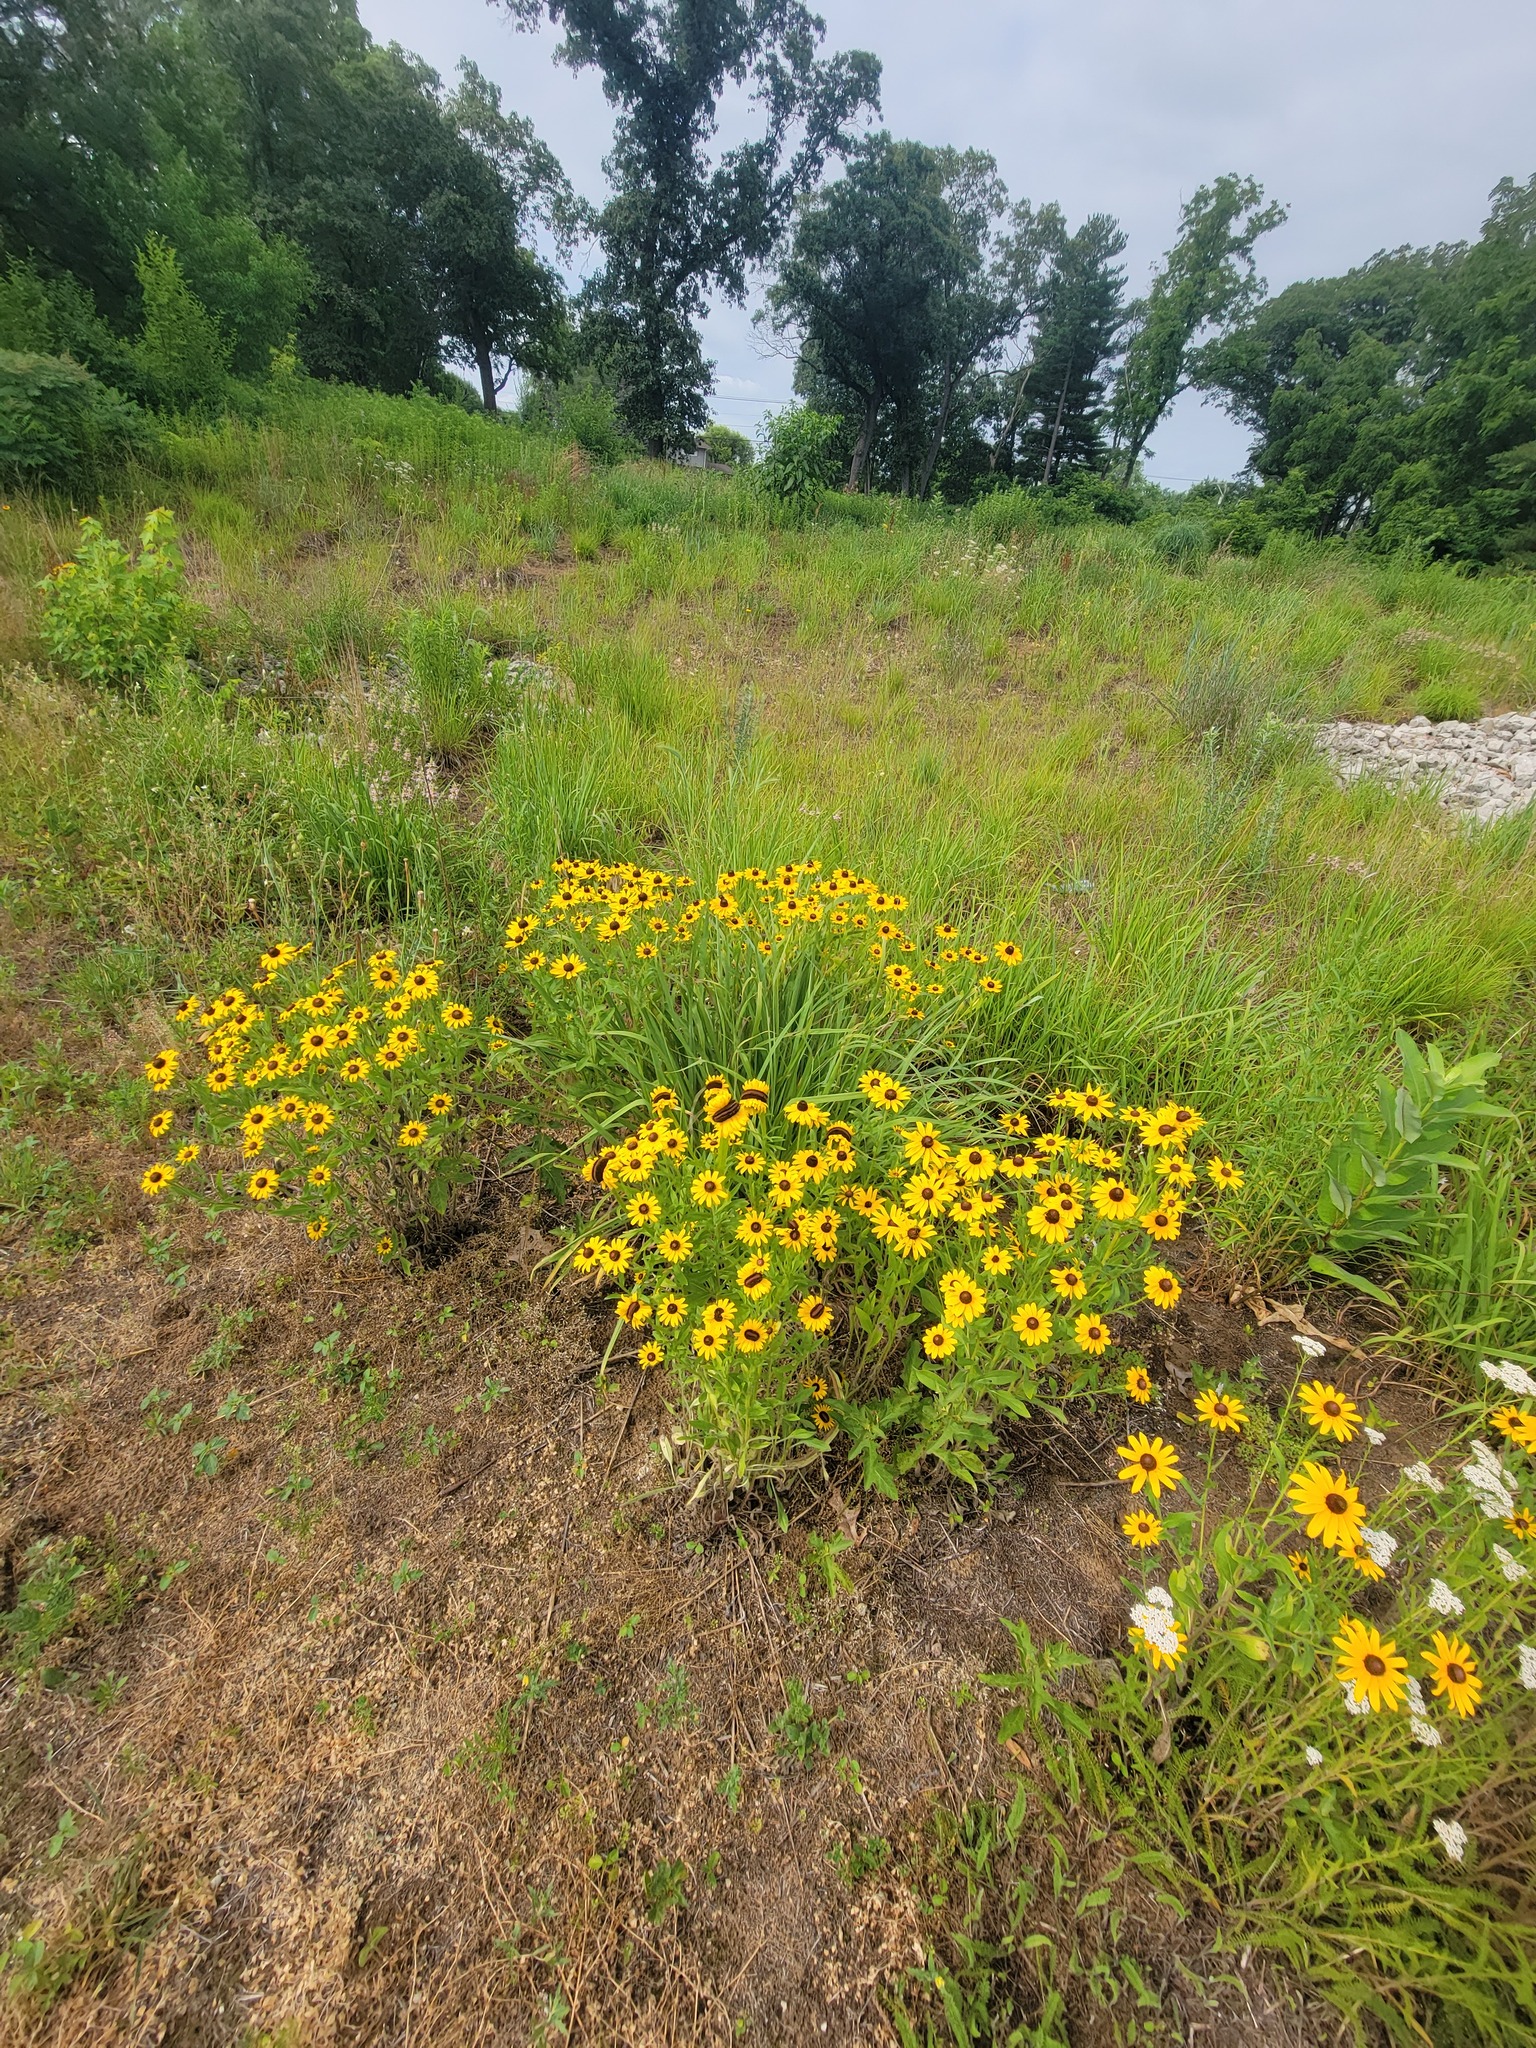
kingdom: Plantae
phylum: Tracheophyta
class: Magnoliopsida
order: Asterales
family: Asteraceae
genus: Rudbeckia
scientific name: Rudbeckia hirta
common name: Black-eyed-susan
